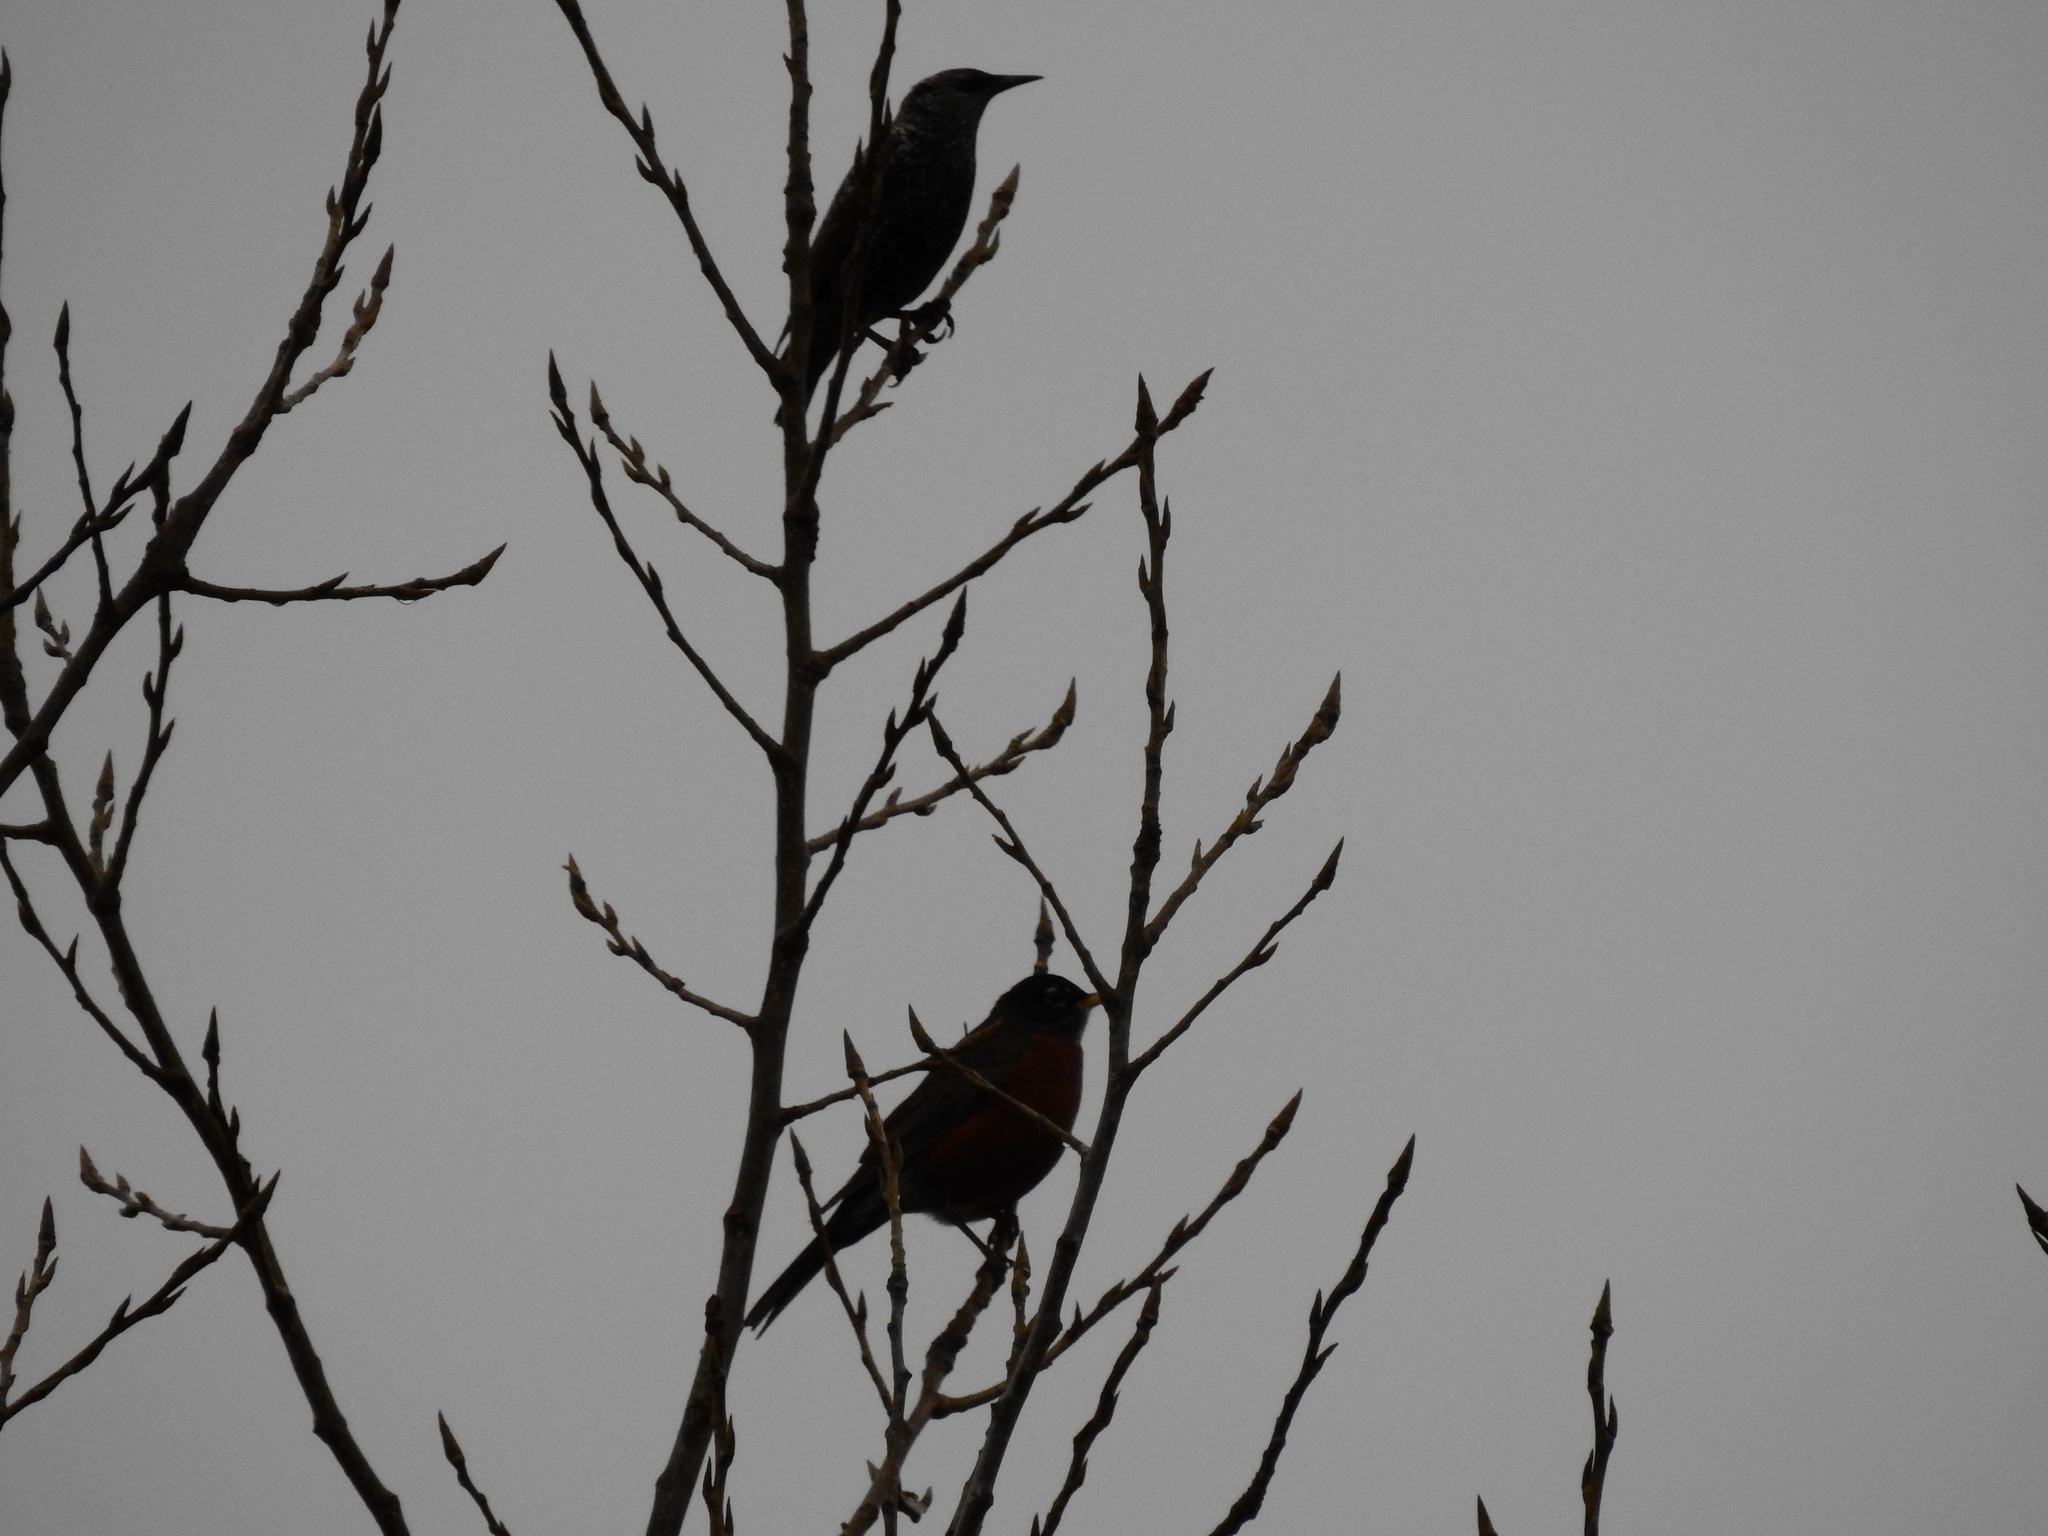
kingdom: Animalia
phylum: Chordata
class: Aves
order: Passeriformes
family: Sturnidae
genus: Sturnus
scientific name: Sturnus vulgaris
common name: Common starling
